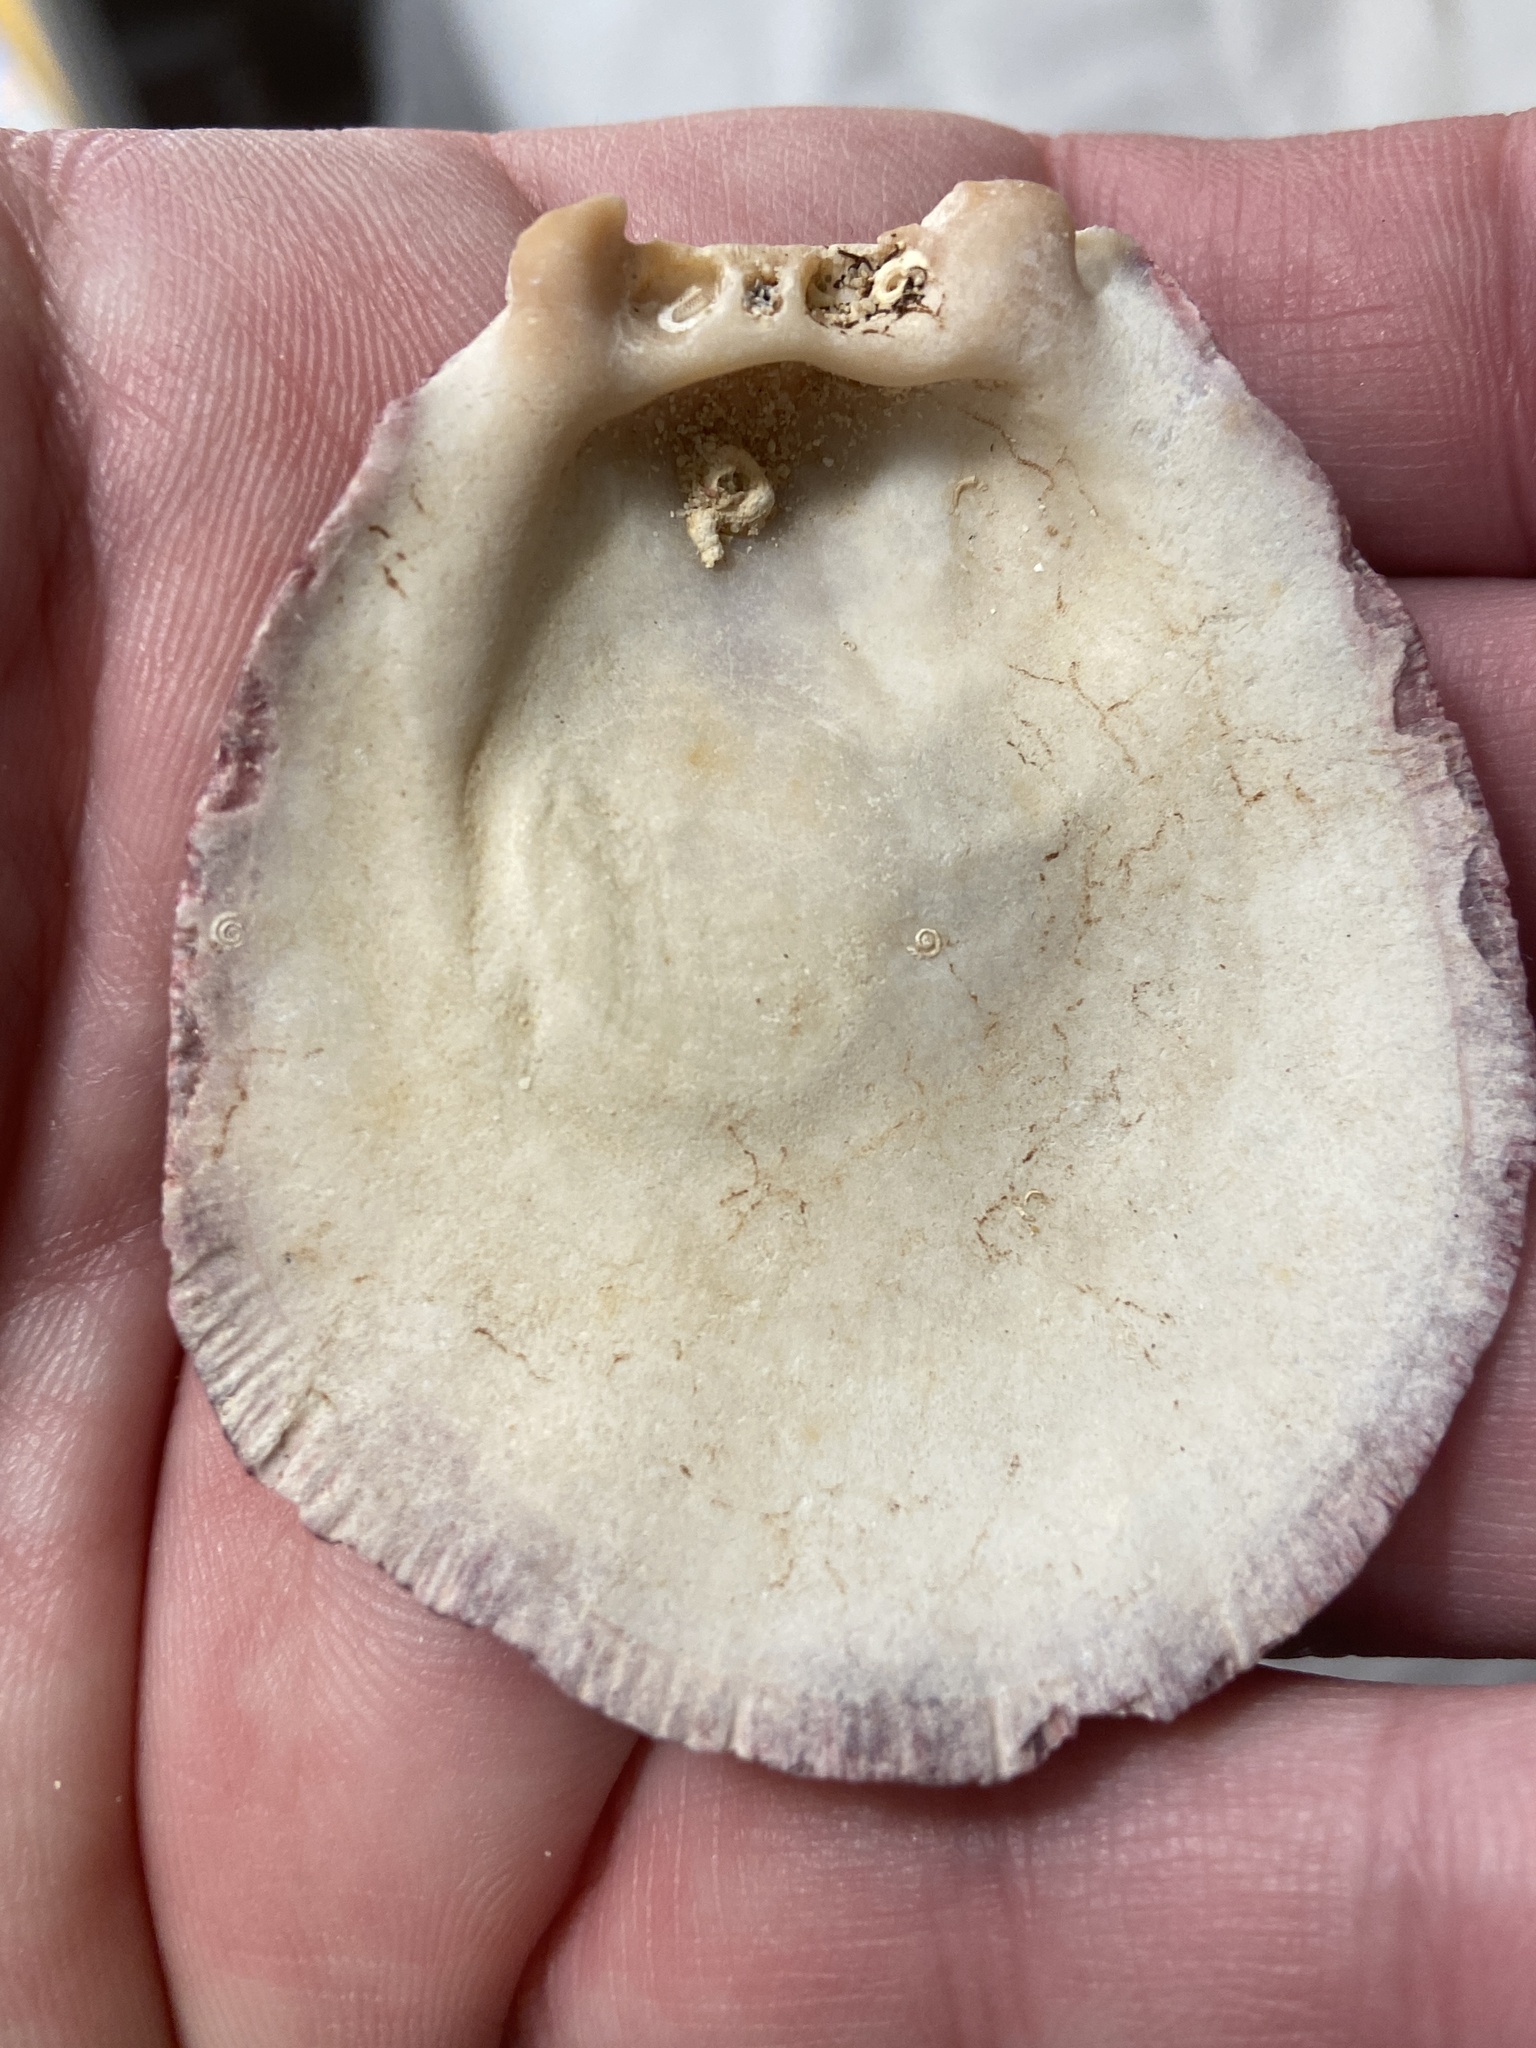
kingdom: Animalia
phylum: Mollusca
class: Bivalvia
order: Pectinida
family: Spondylidae
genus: Spondylus
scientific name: Spondylus gaederopus
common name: European thorny oyster
